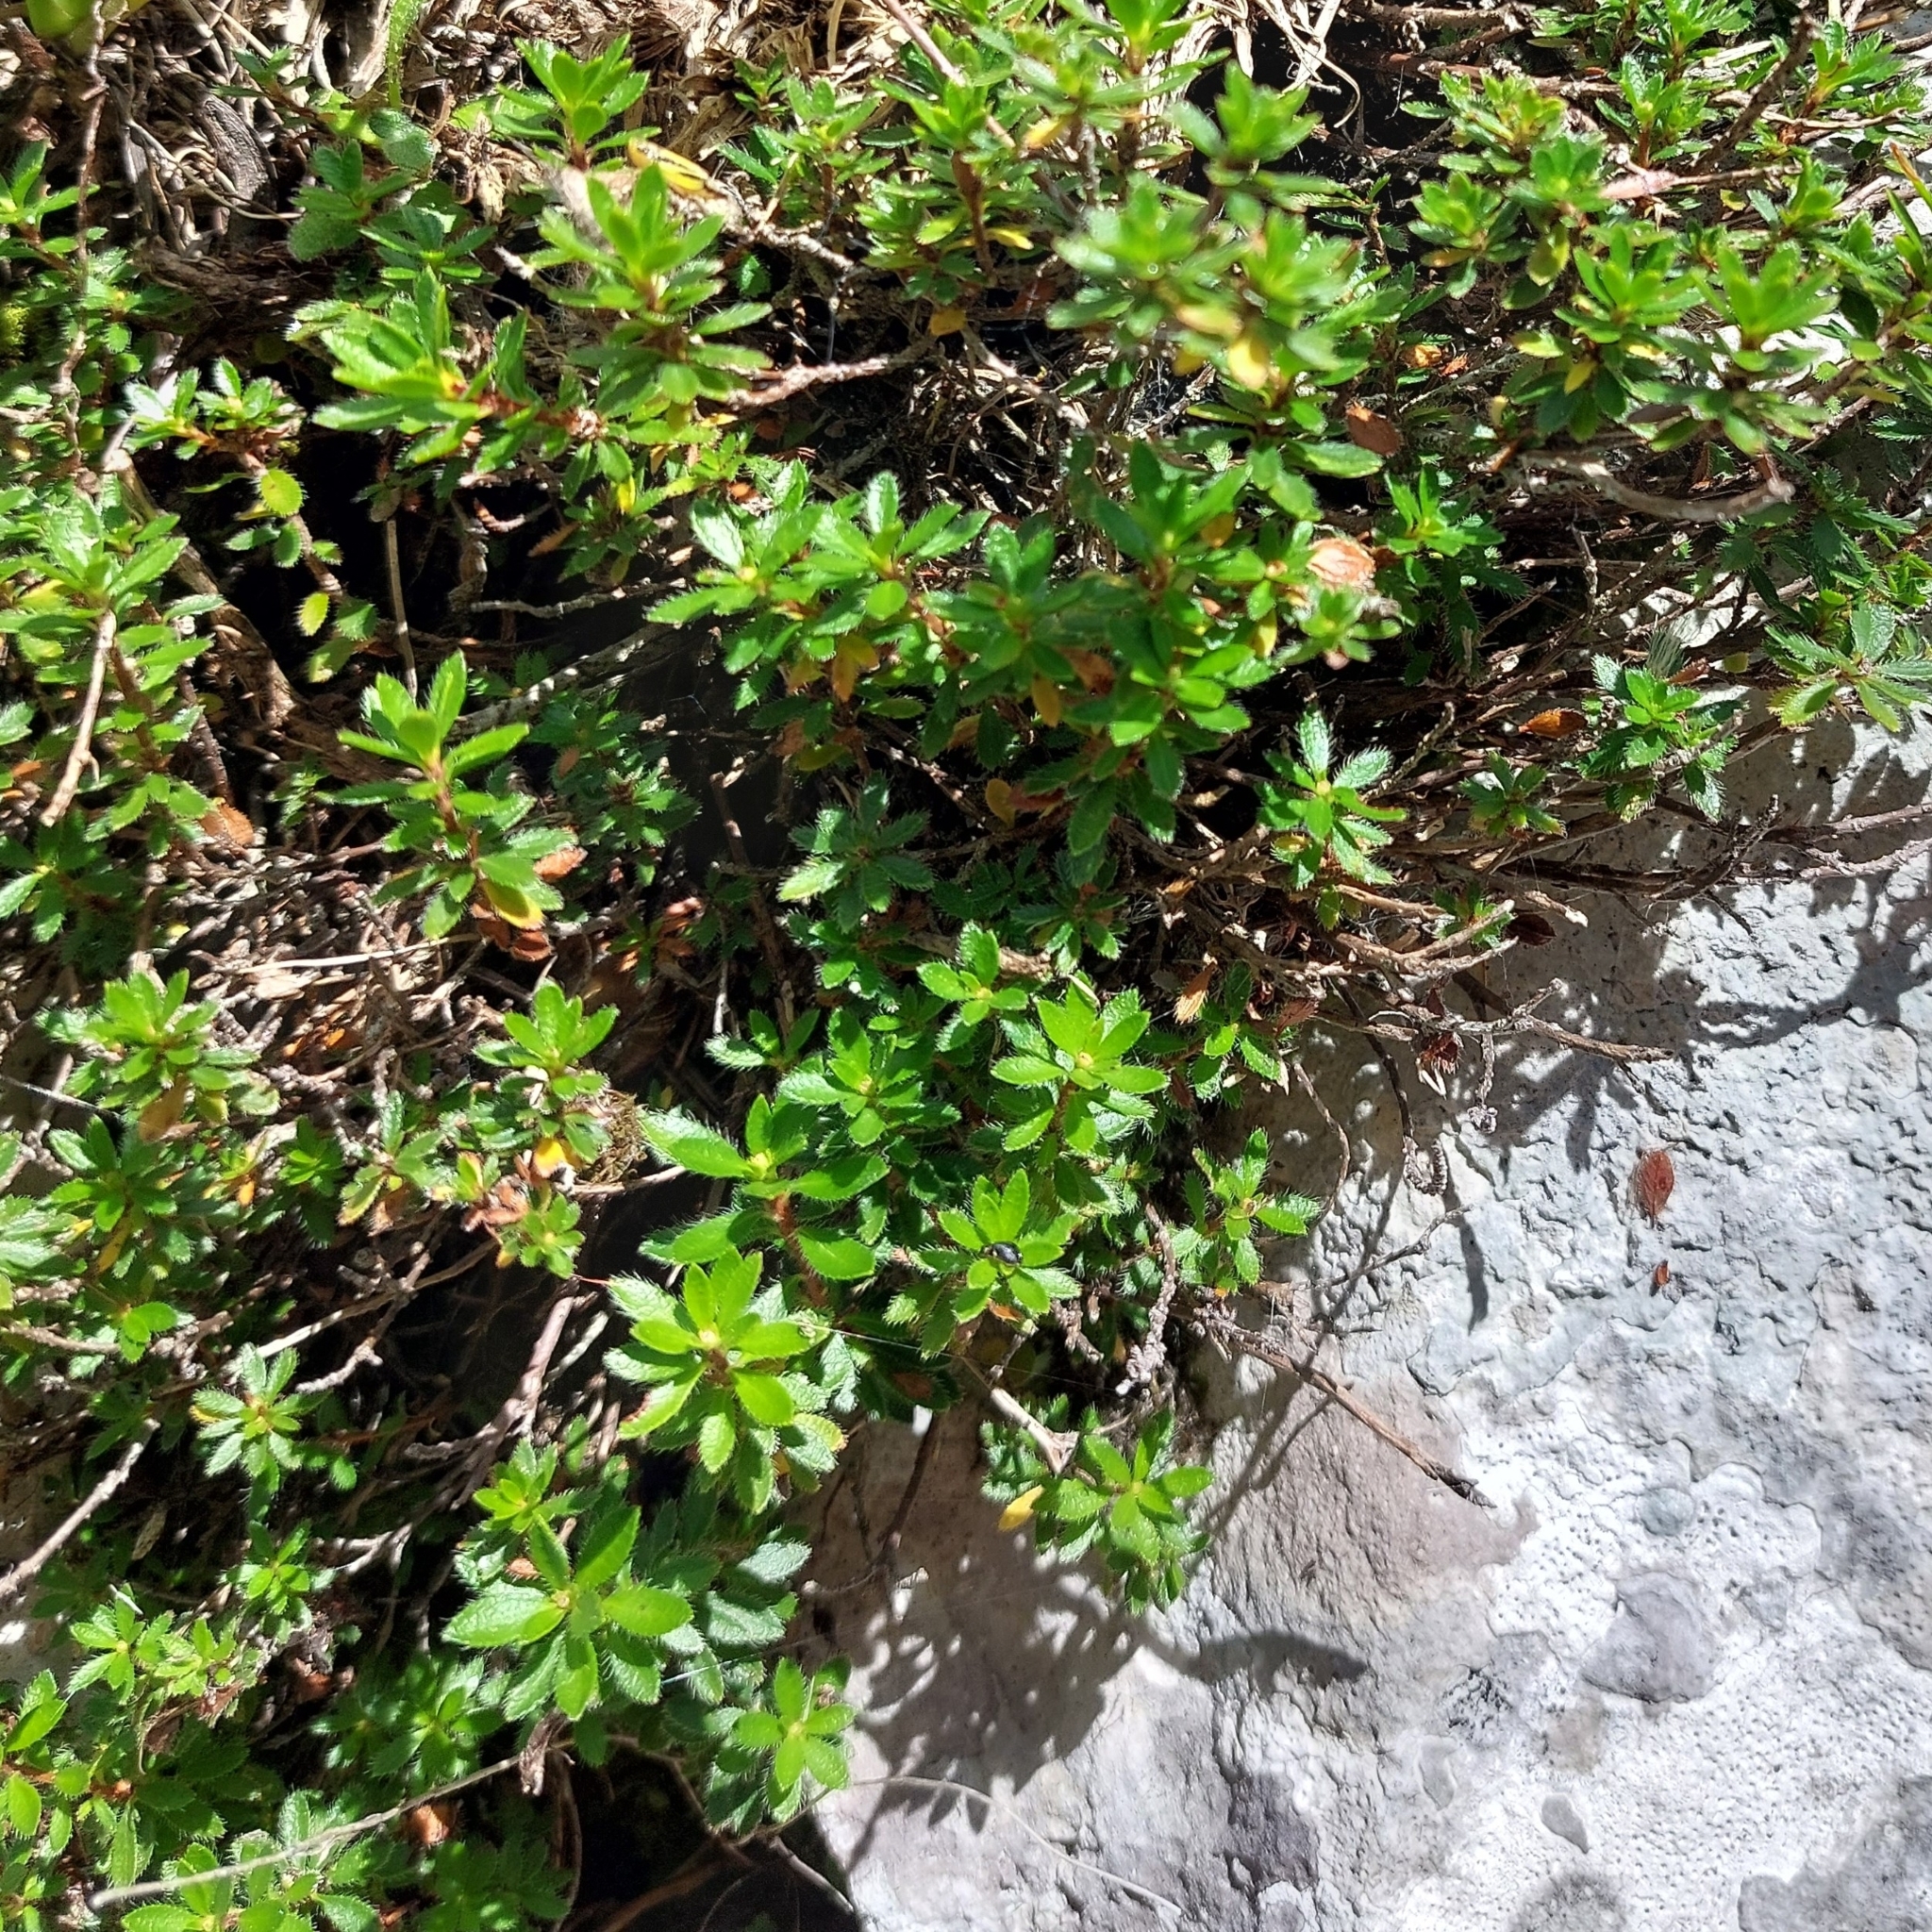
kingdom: Plantae
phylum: Tracheophyta
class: Magnoliopsida
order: Ericales
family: Ericaceae
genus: Rhodothamnus
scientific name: Rhodothamnus chamaecistus
